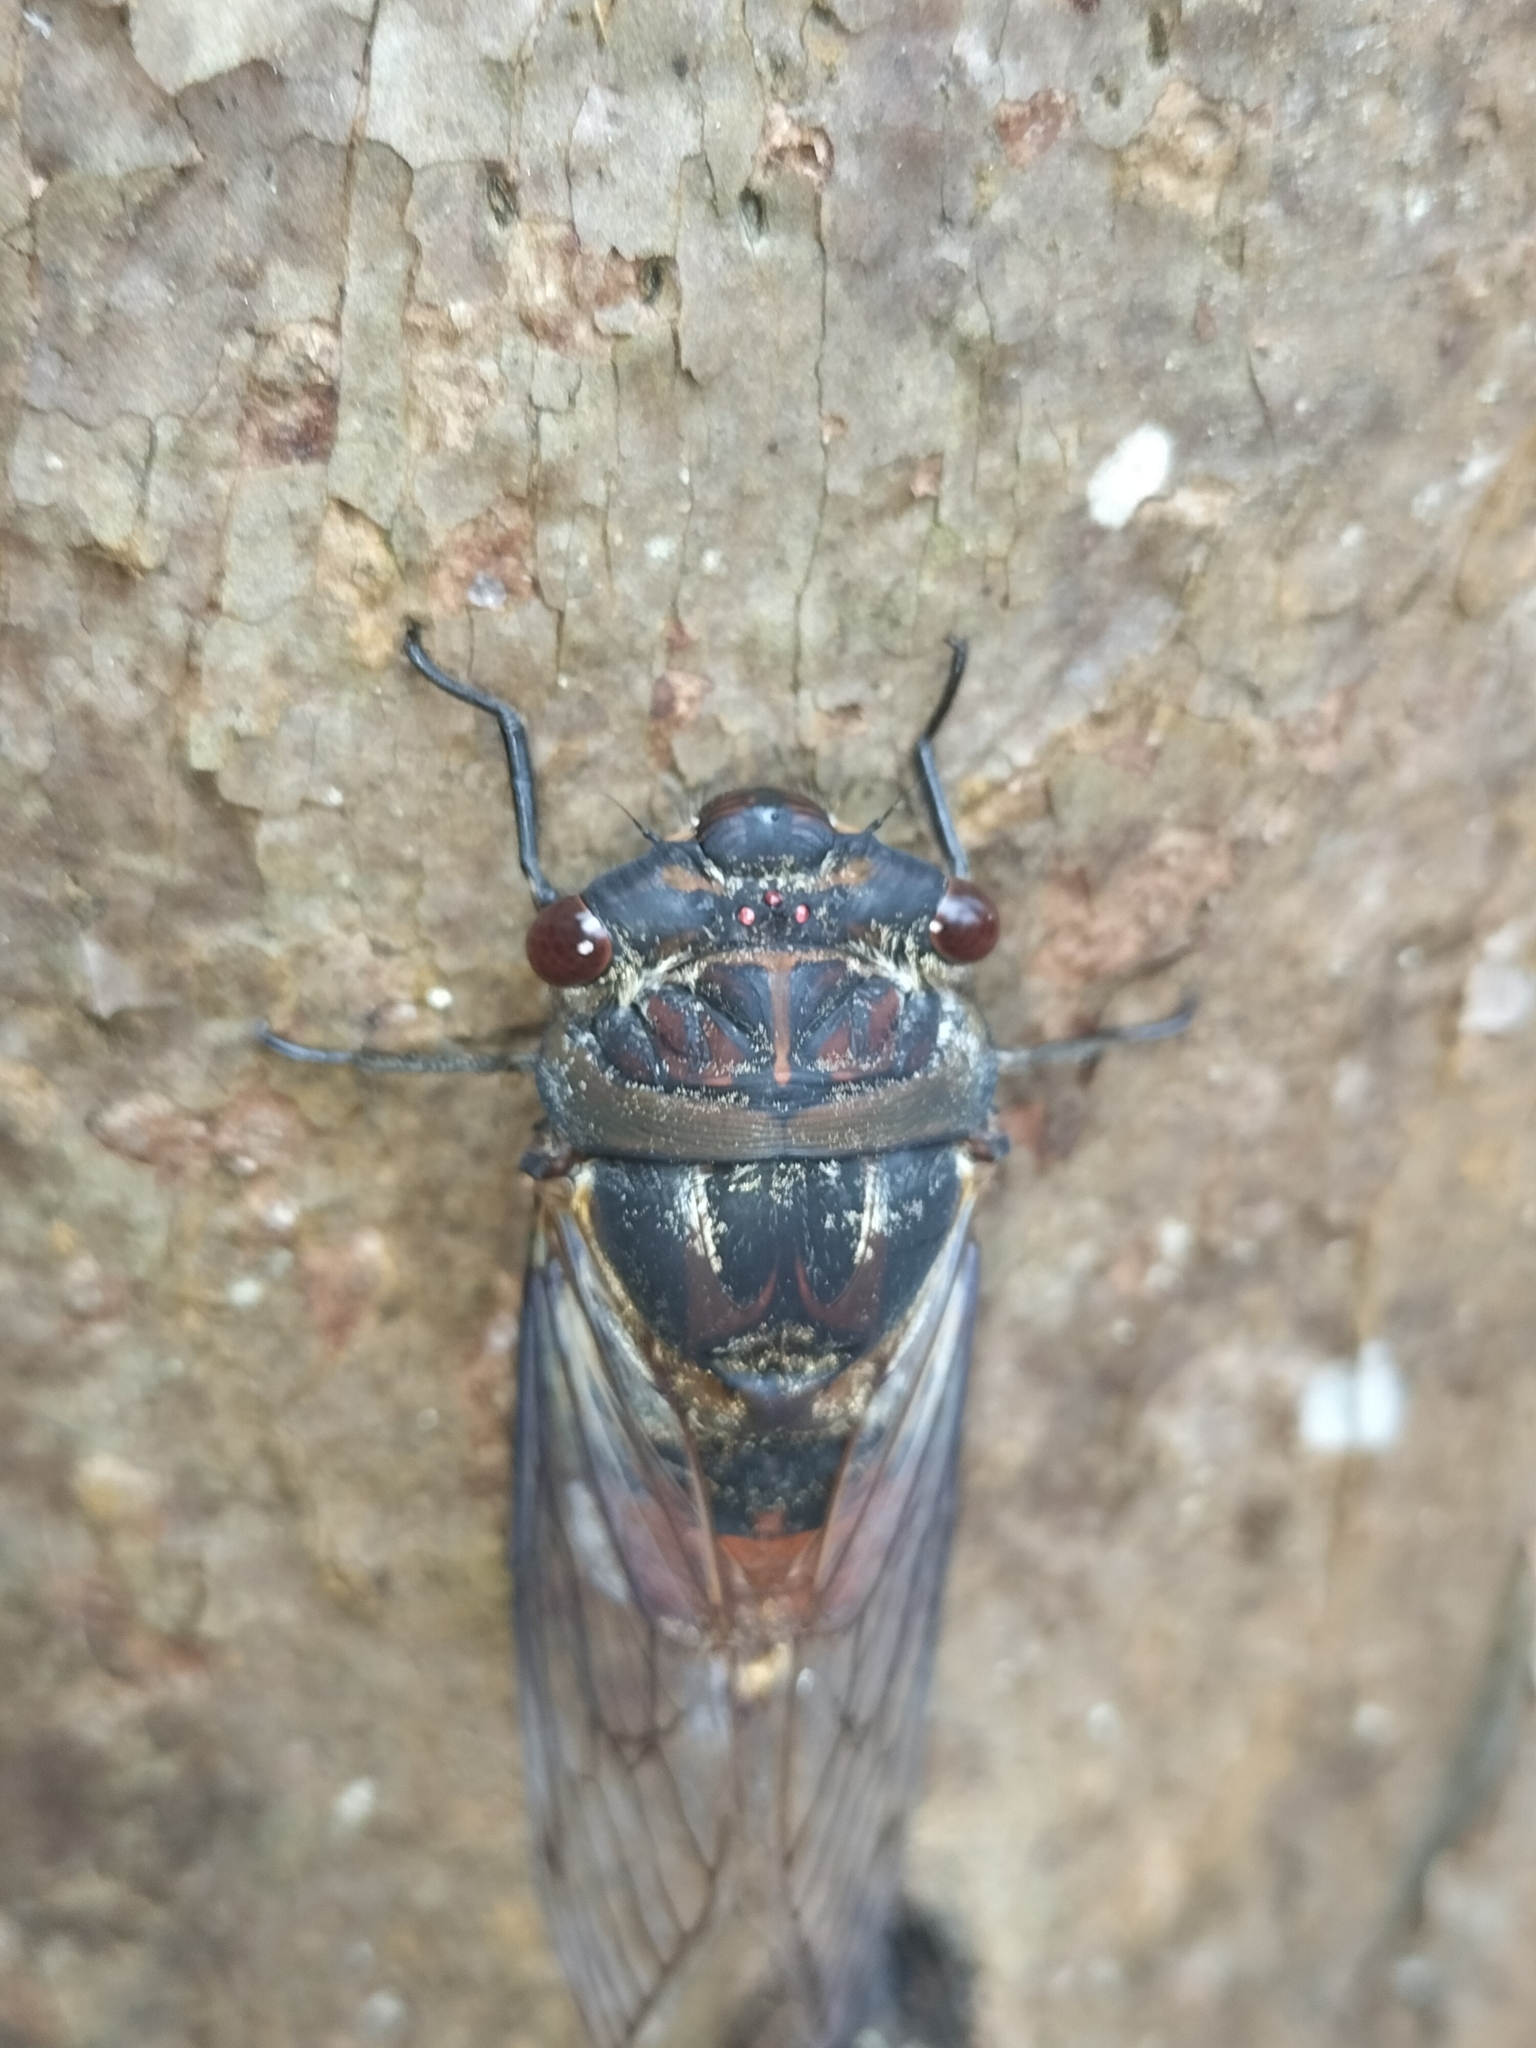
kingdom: Animalia
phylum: Arthropoda
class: Insecta
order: Hemiptera
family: Cicadidae
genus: Psaltoda
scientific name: Psaltoda aurora
